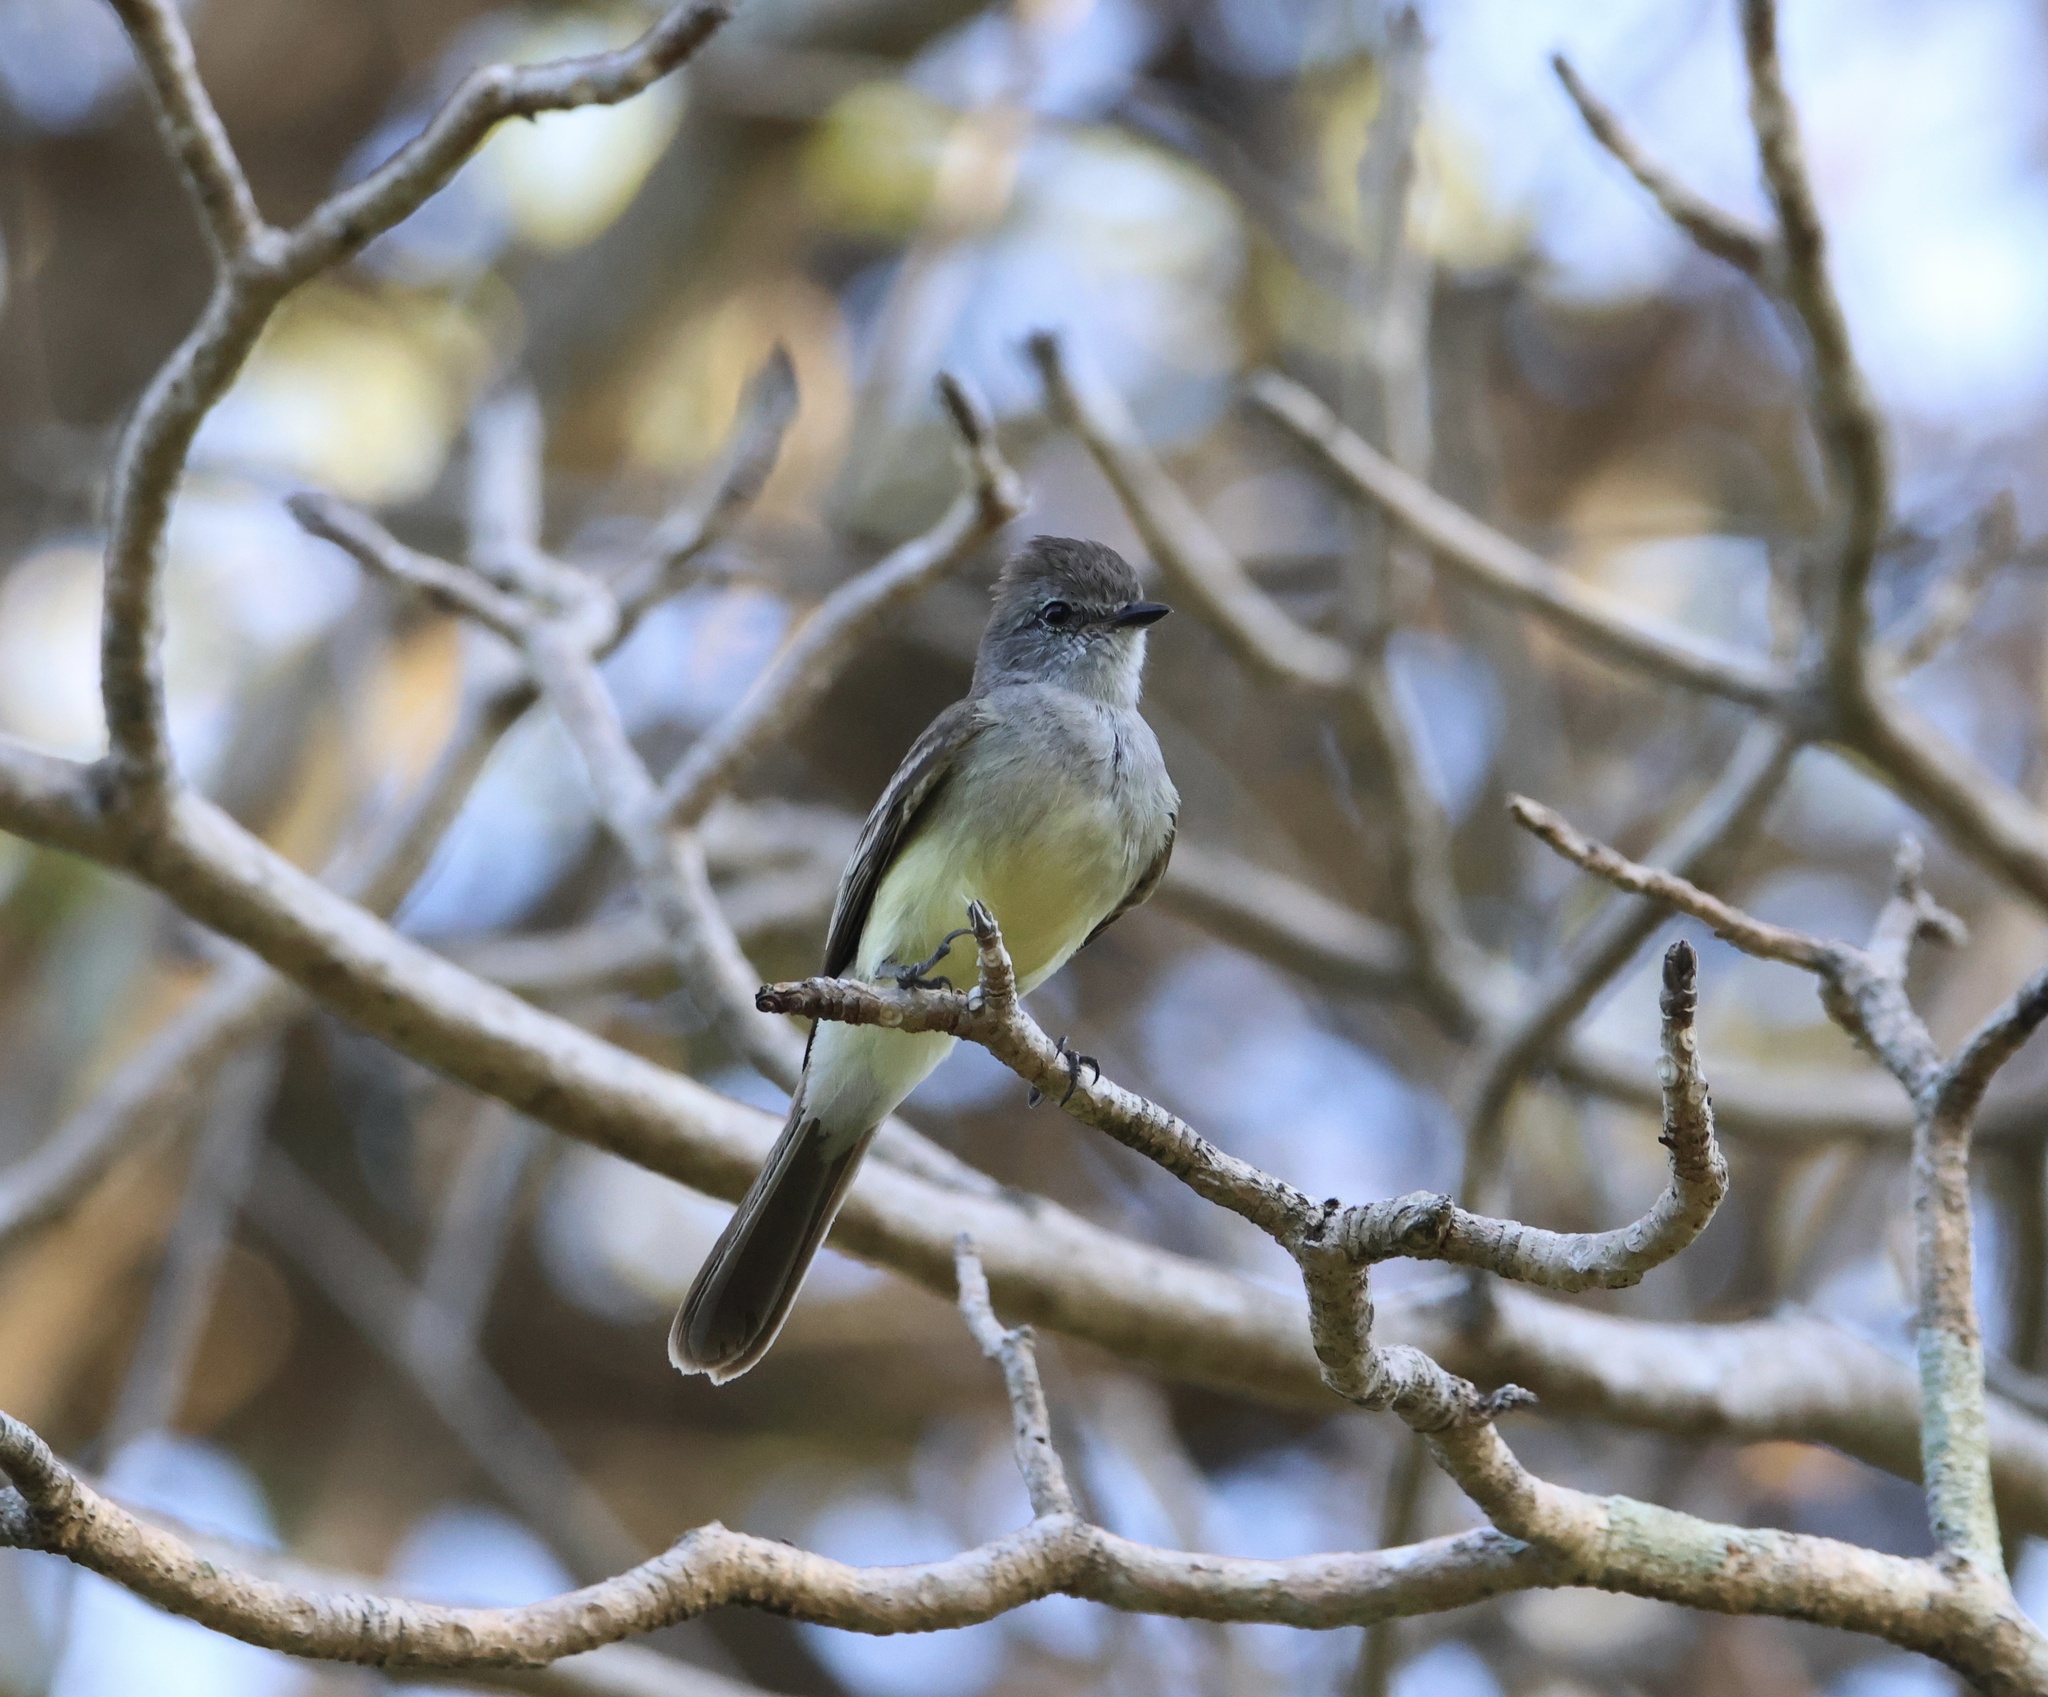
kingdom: Animalia
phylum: Chordata
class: Aves
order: Passeriformes
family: Tyrannidae
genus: Sublegatus
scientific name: Sublegatus arenarum
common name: Northern scrub-flycatcher
